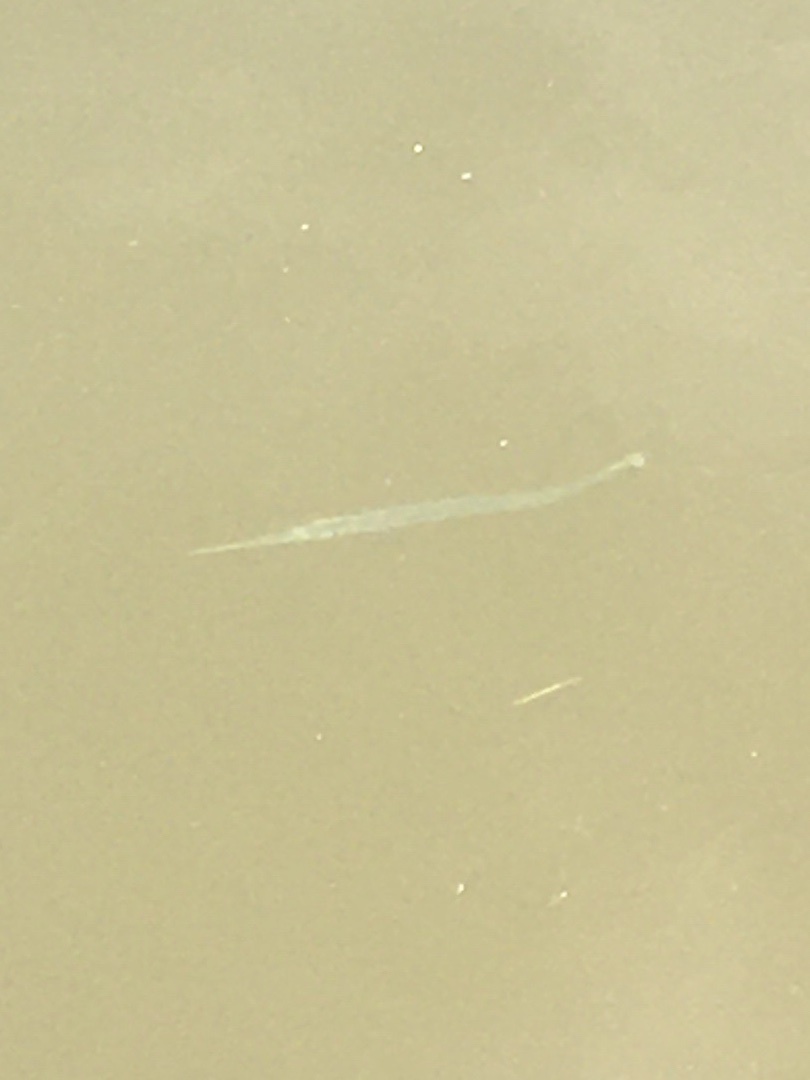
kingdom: Animalia
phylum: Chordata
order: Beloniformes
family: Belonidae
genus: Strongylura
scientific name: Strongylura marina
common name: Atlantic needlefish
